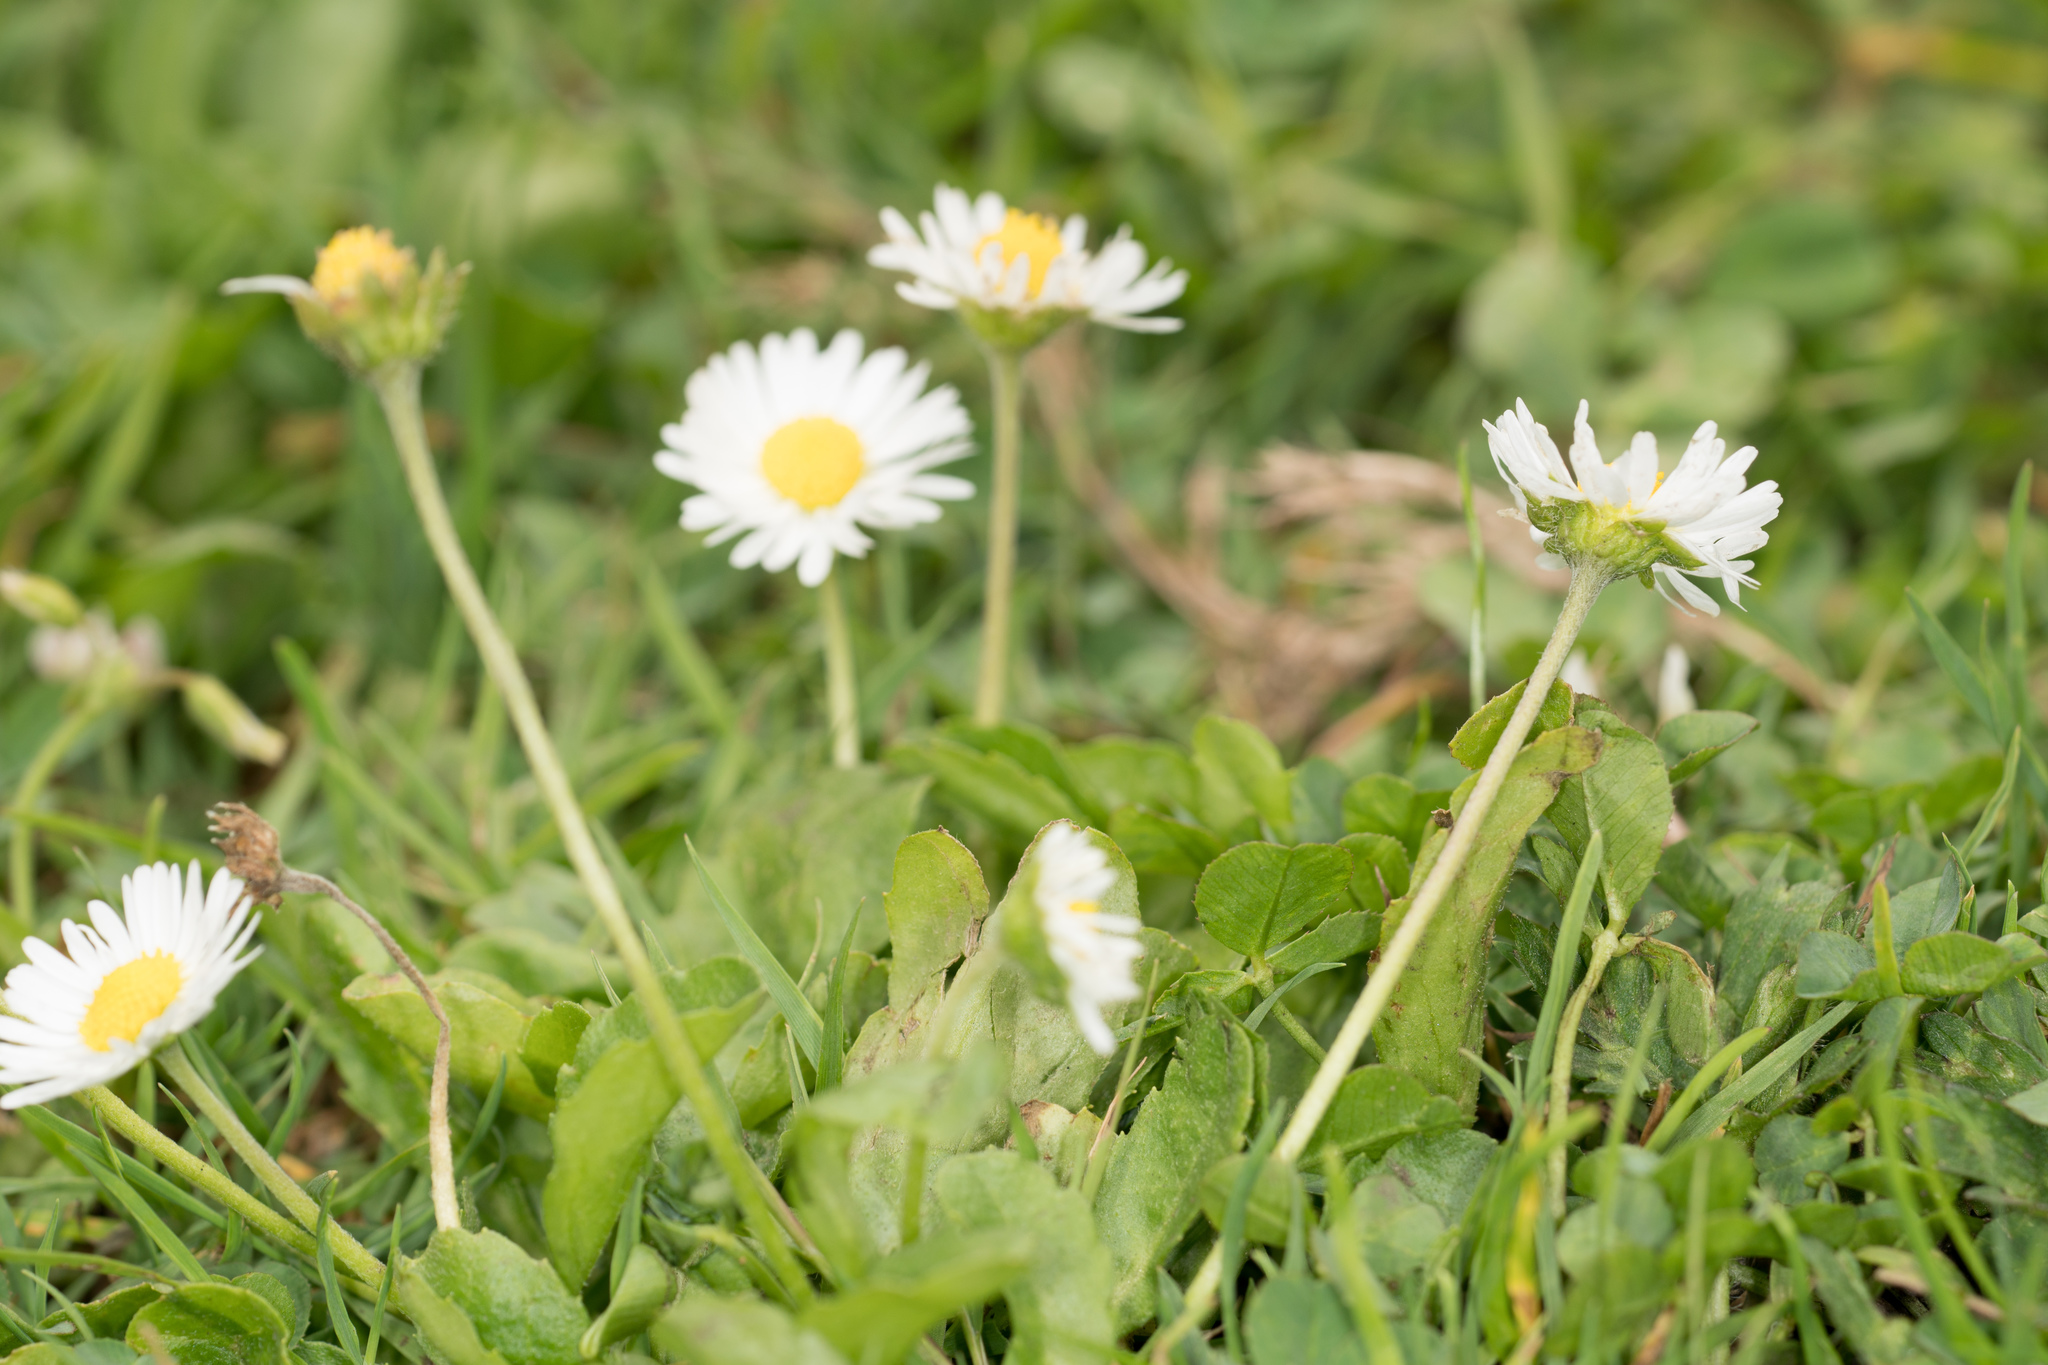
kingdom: Plantae
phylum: Tracheophyta
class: Magnoliopsida
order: Asterales
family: Asteraceae
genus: Bellis
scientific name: Bellis perennis
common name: Lawndaisy
